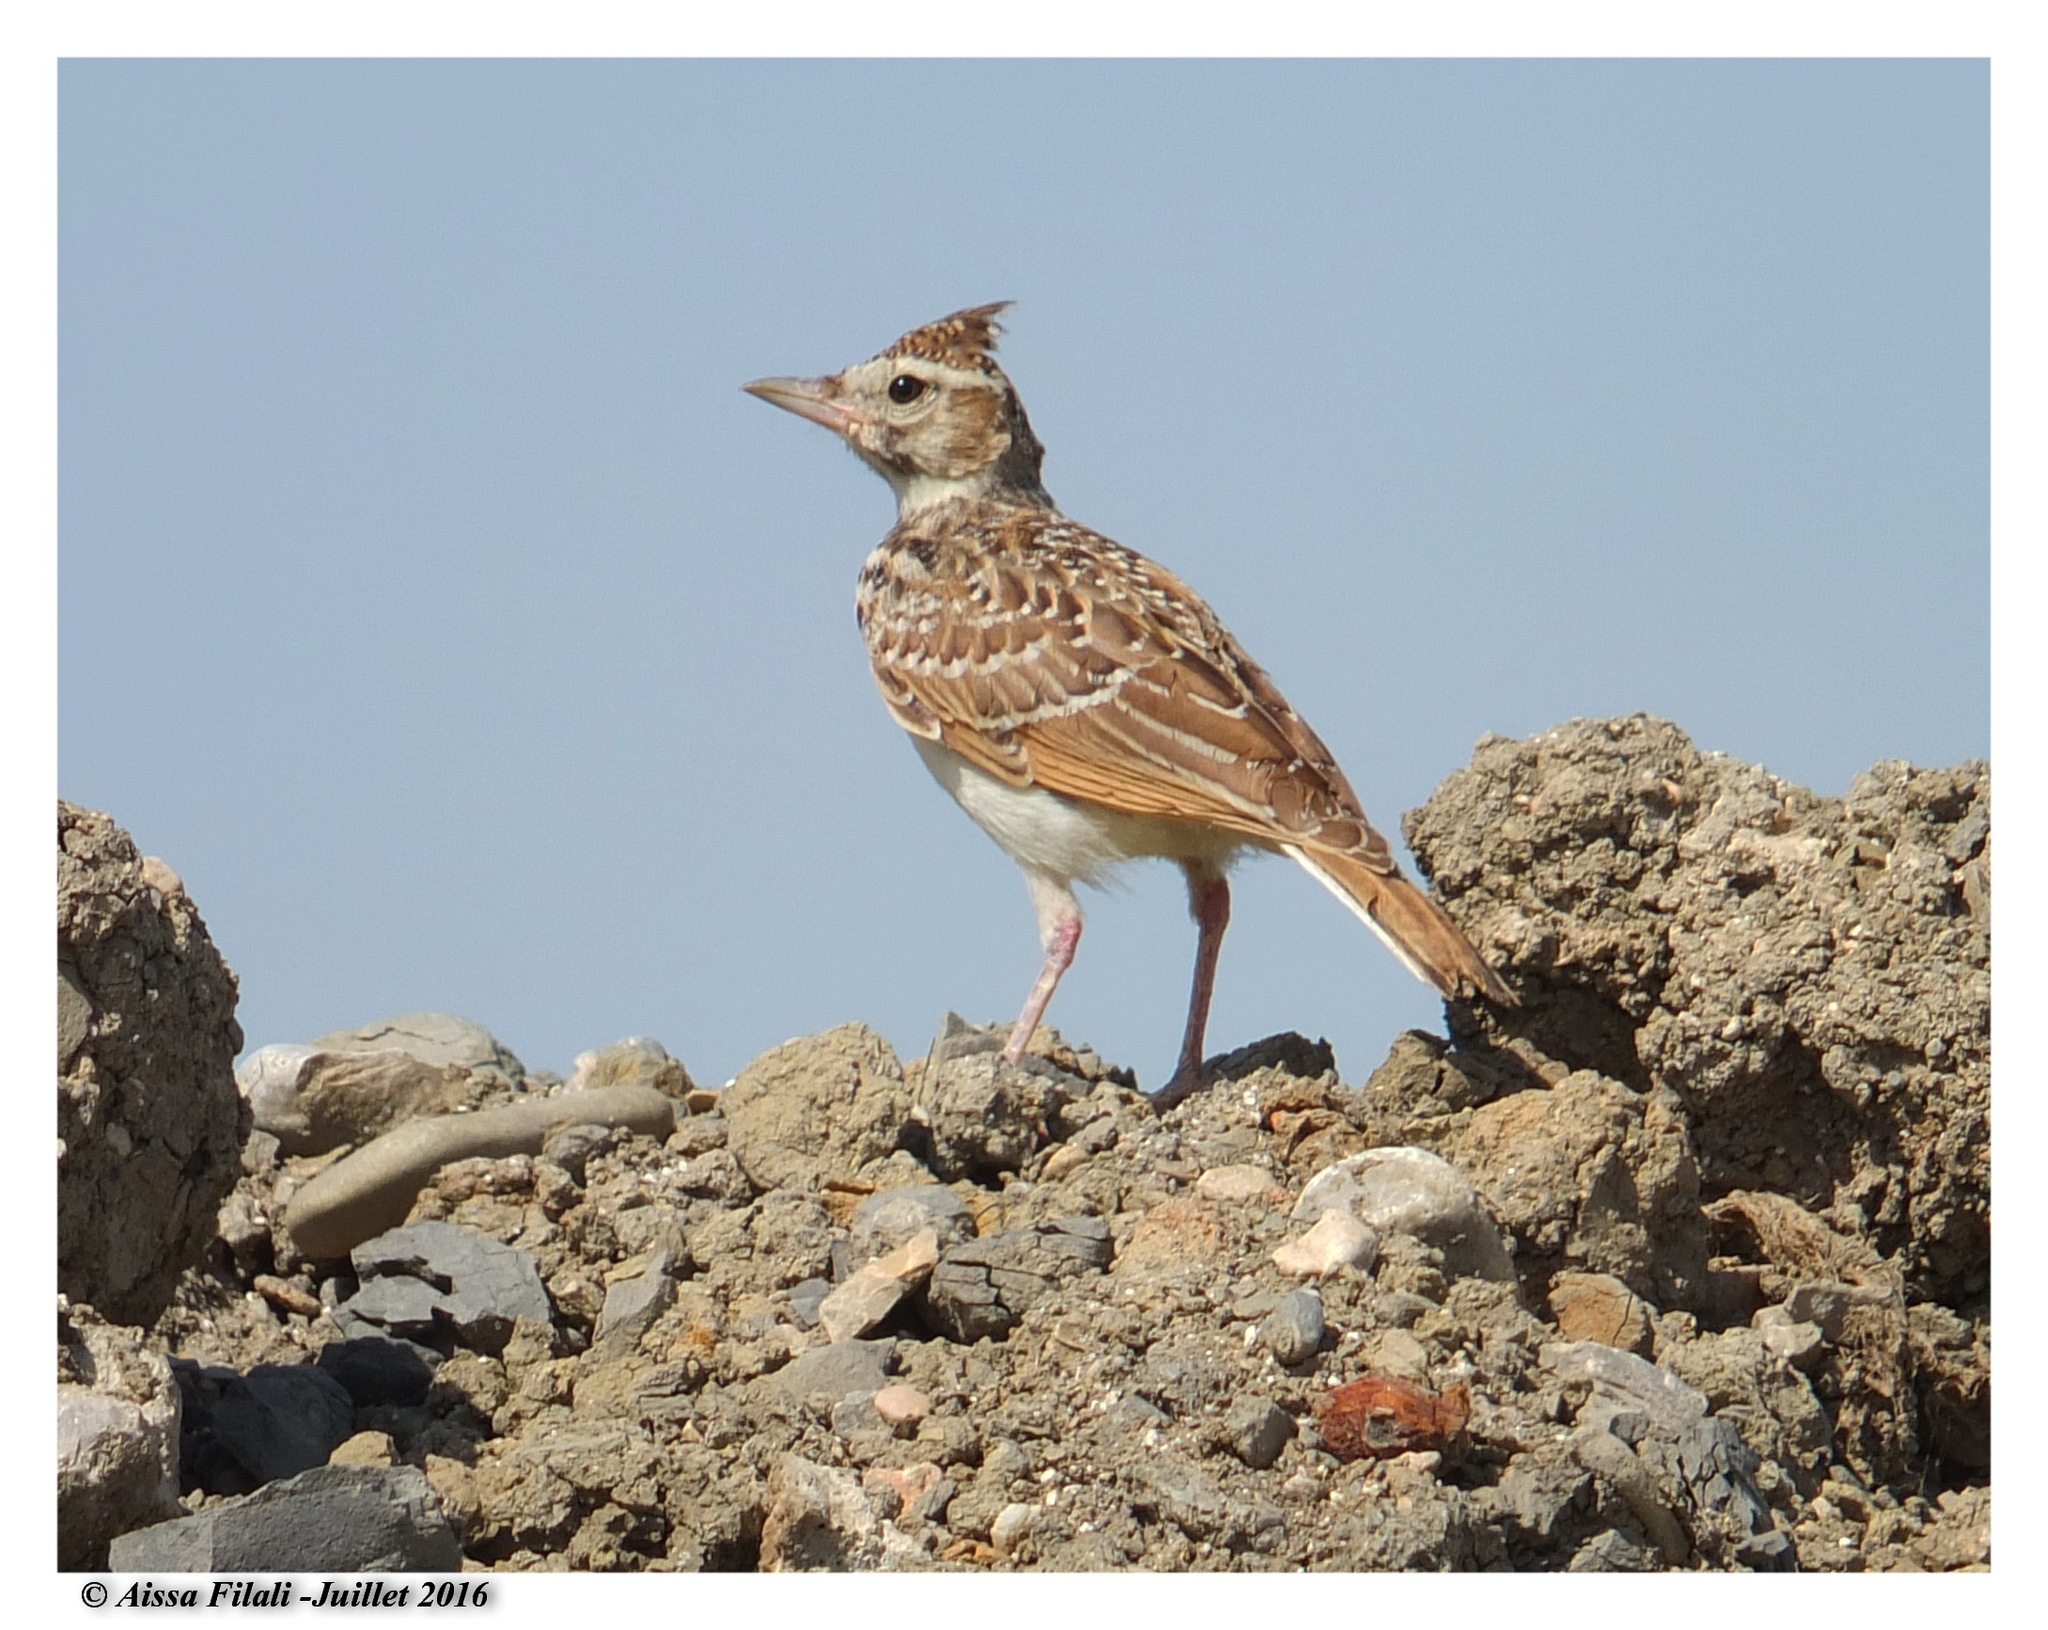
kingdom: Animalia
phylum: Chordata
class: Aves
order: Passeriformes
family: Alaudidae
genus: Galerida
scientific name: Galerida cristata
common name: Crested lark
